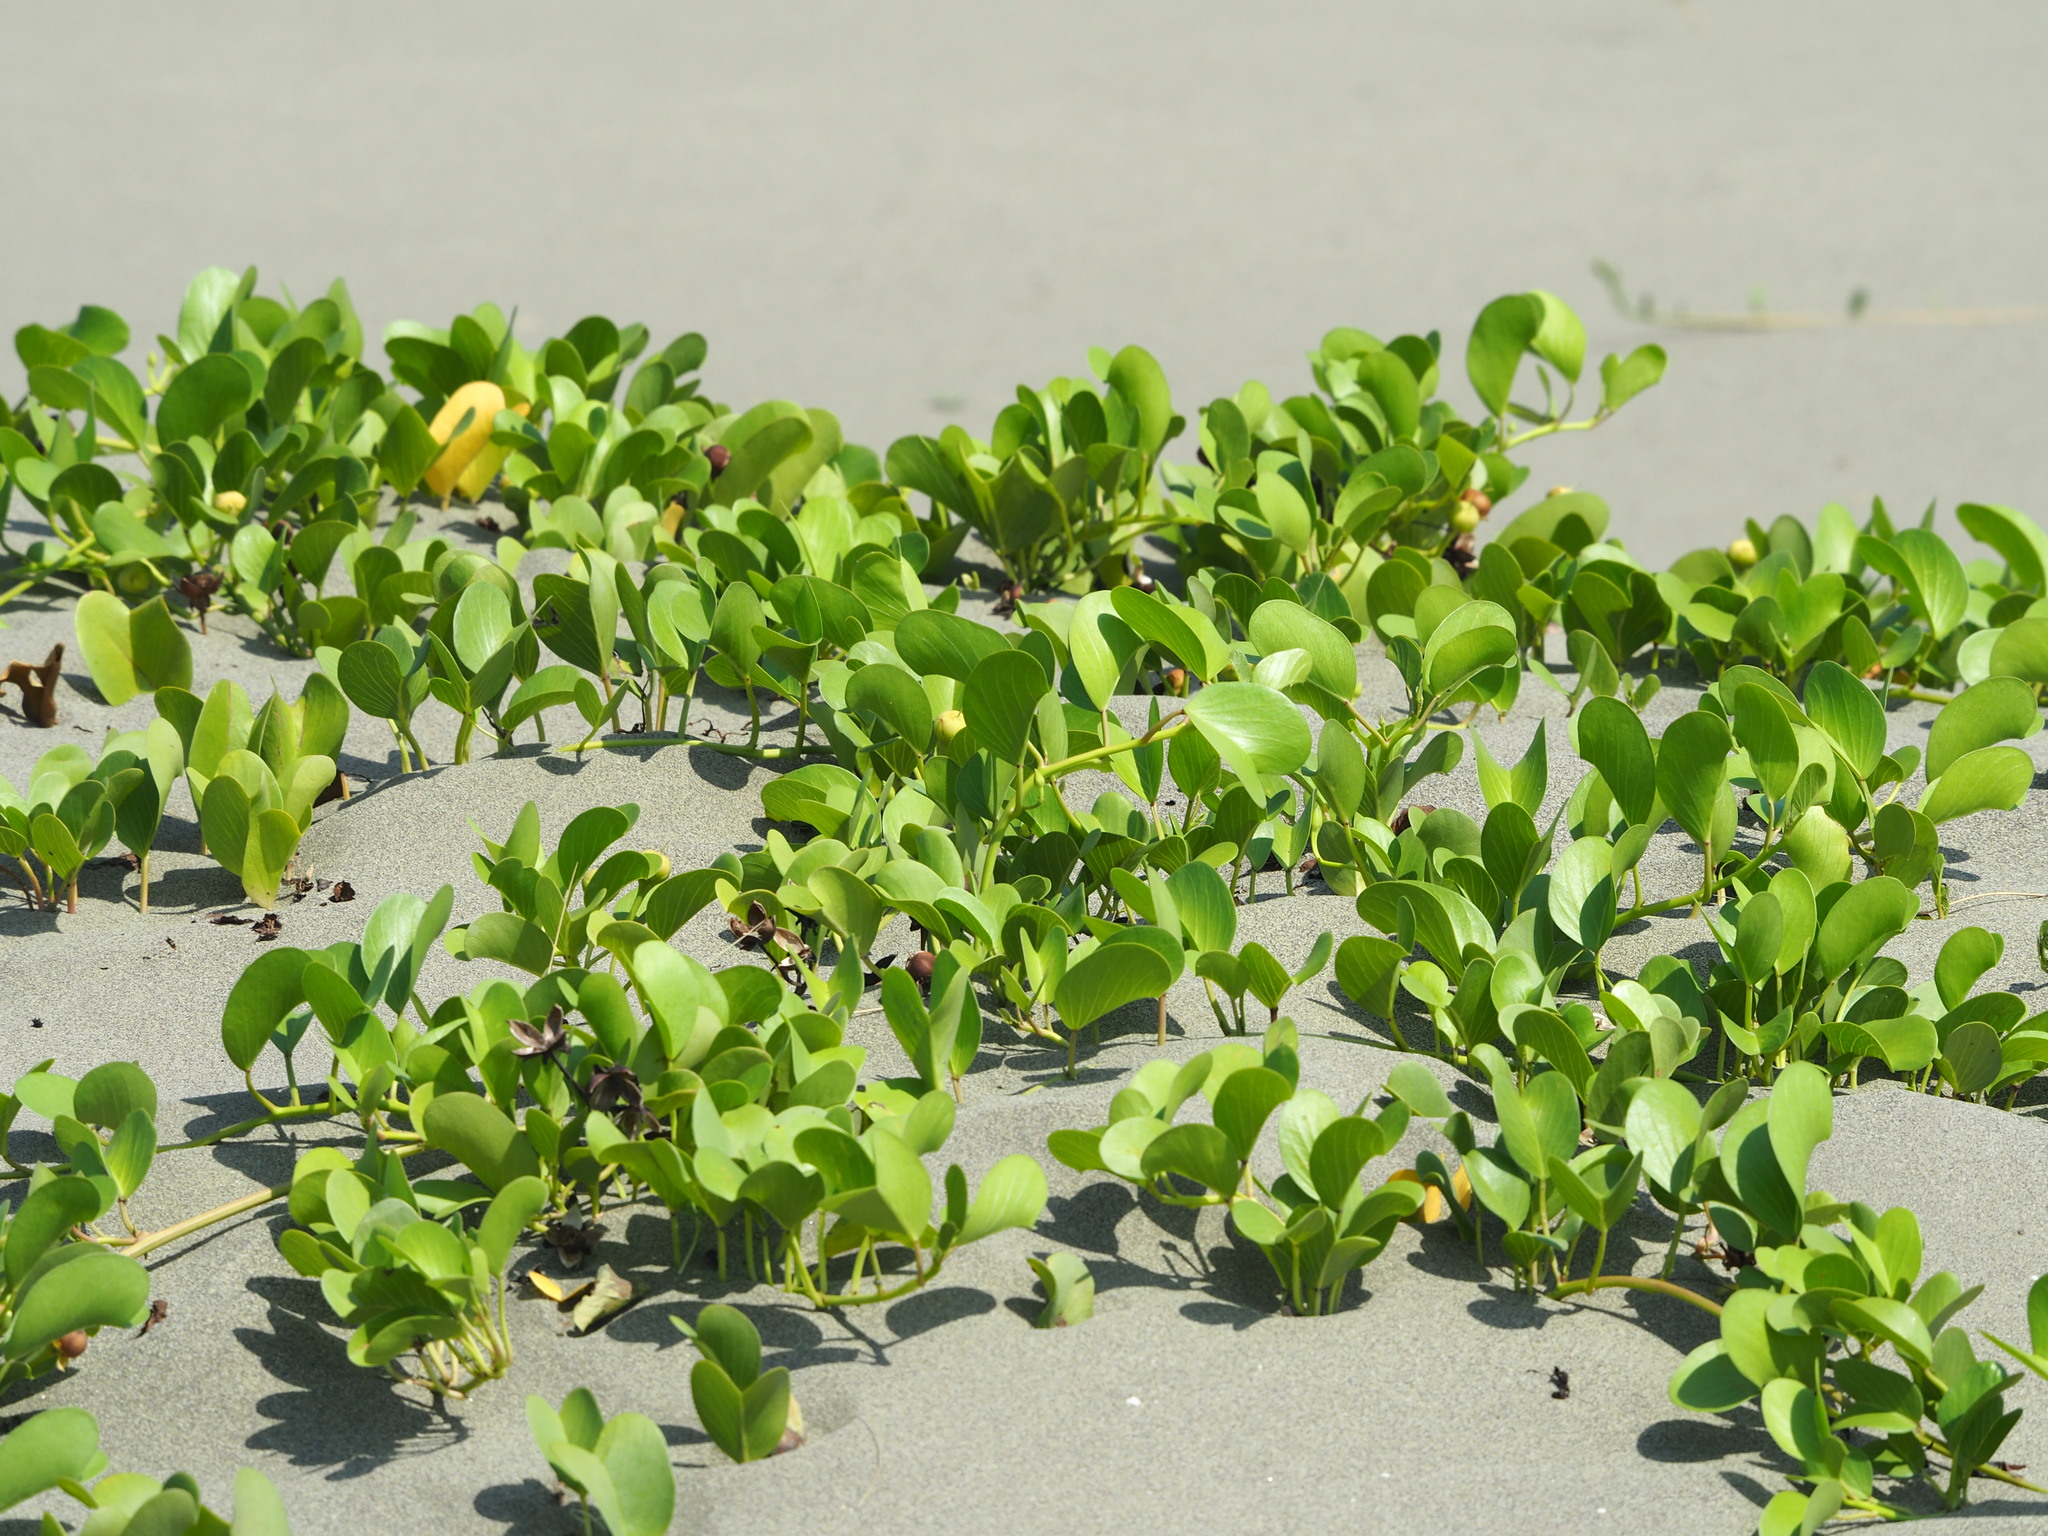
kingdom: Plantae
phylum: Tracheophyta
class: Magnoliopsida
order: Solanales
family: Convolvulaceae
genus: Ipomoea
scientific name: Ipomoea pes-caprae
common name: Beach morning glory
